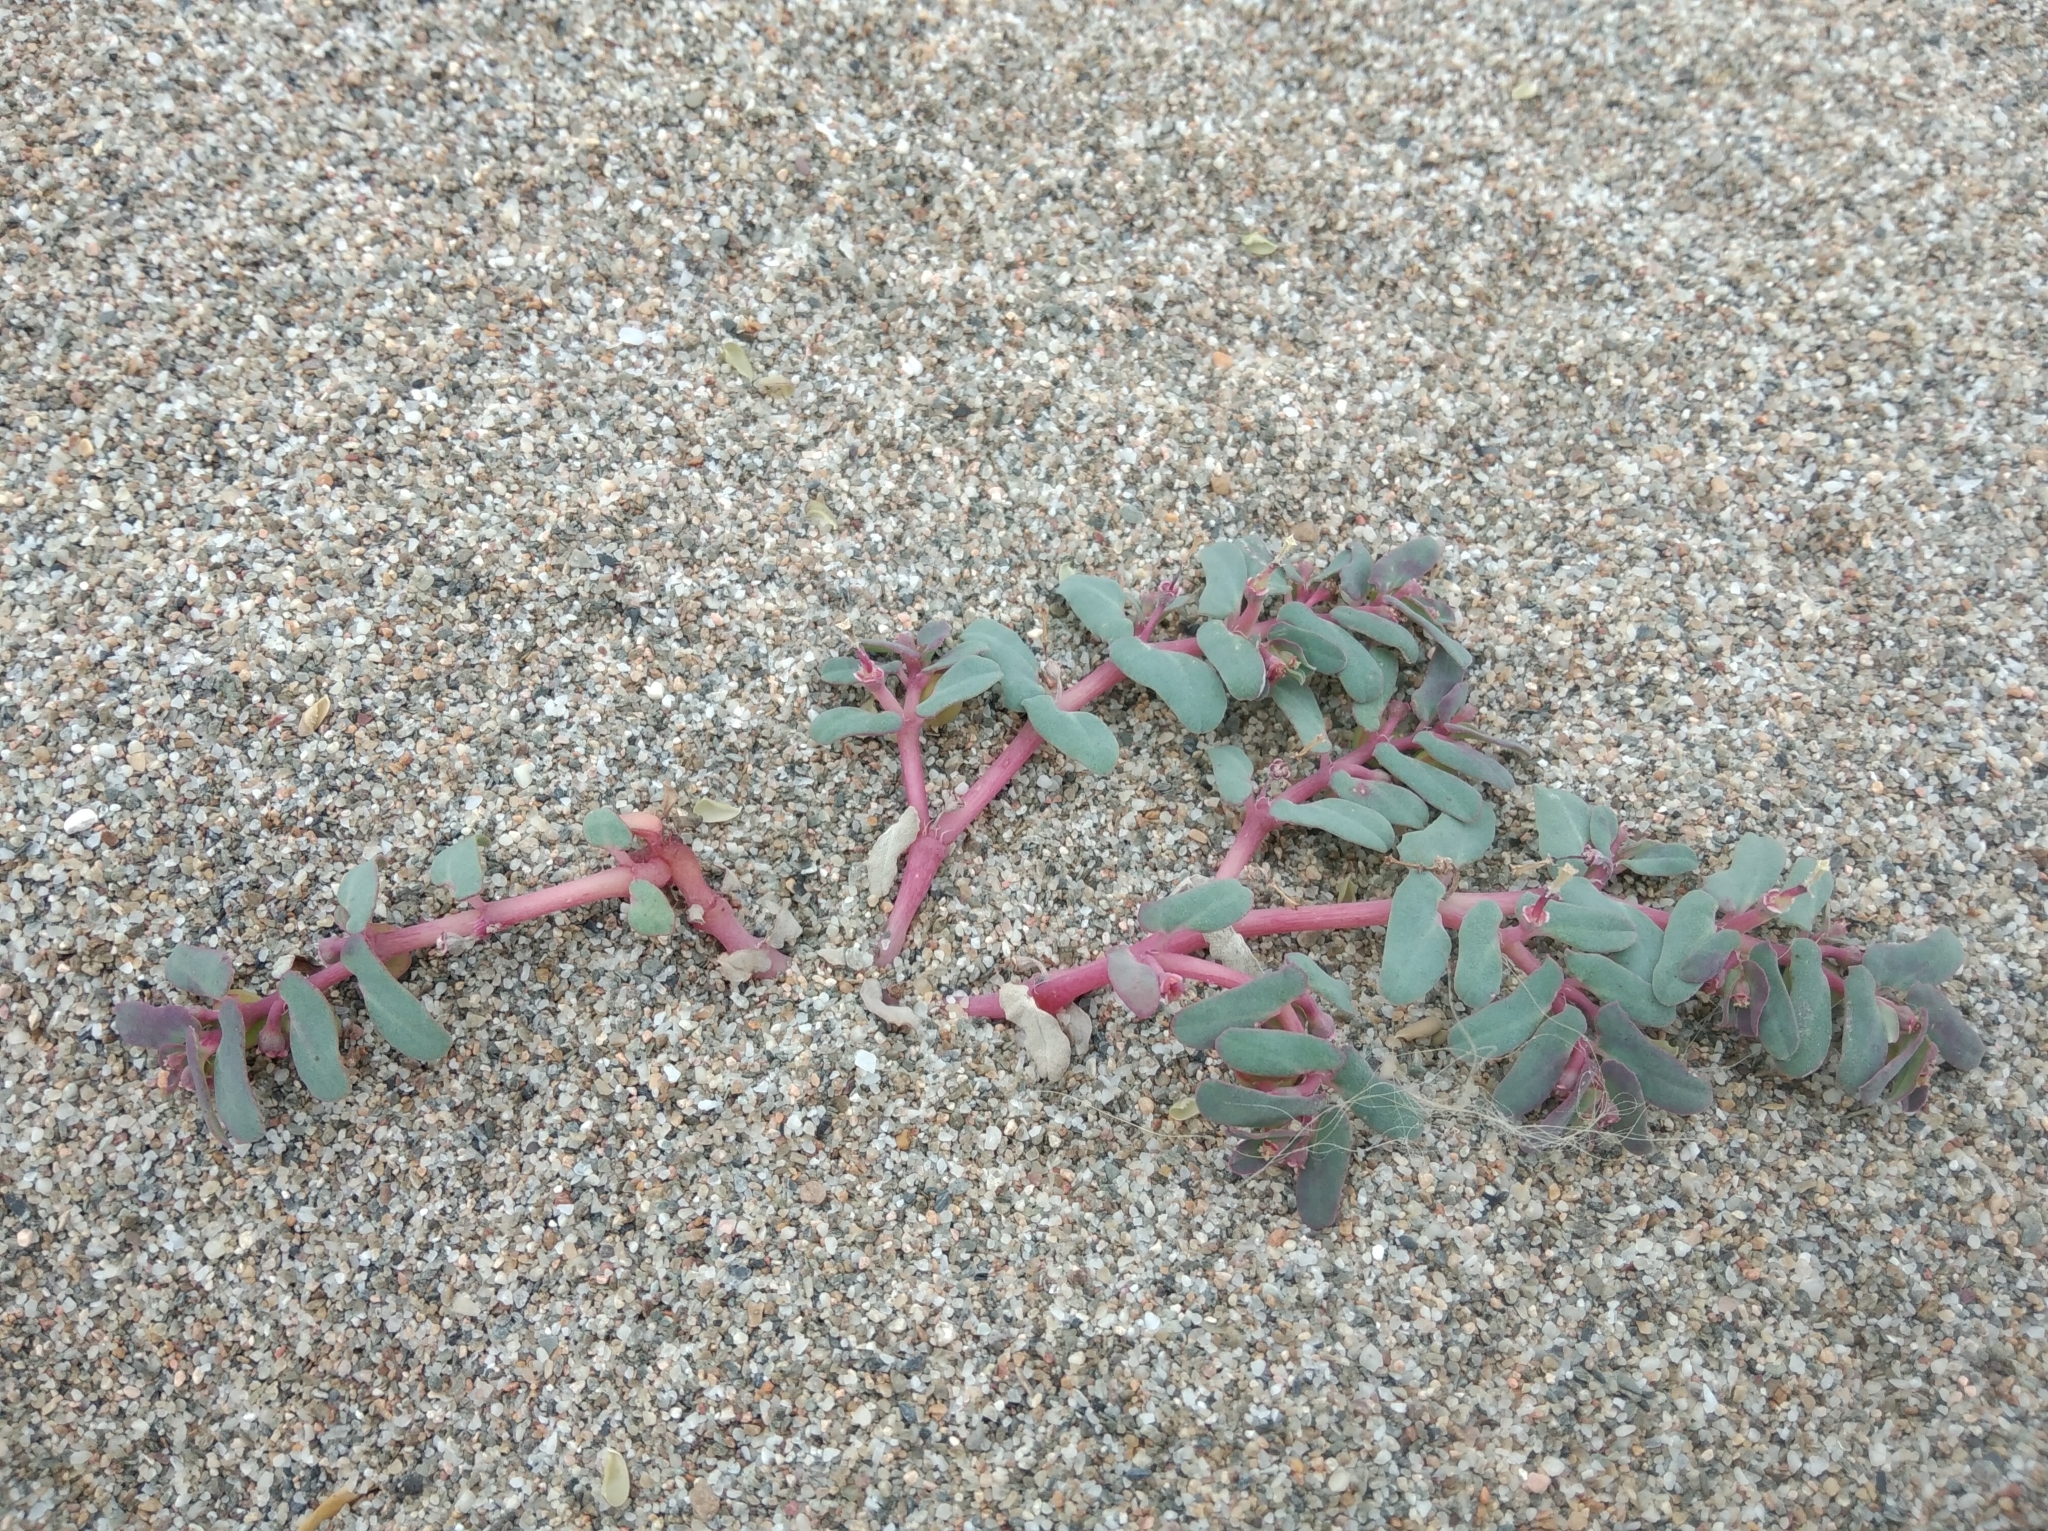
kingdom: Plantae
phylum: Tracheophyta
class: Magnoliopsida
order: Malpighiales
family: Euphorbiaceae
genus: Euphorbia
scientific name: Euphorbia peplis
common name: Purple spurge
